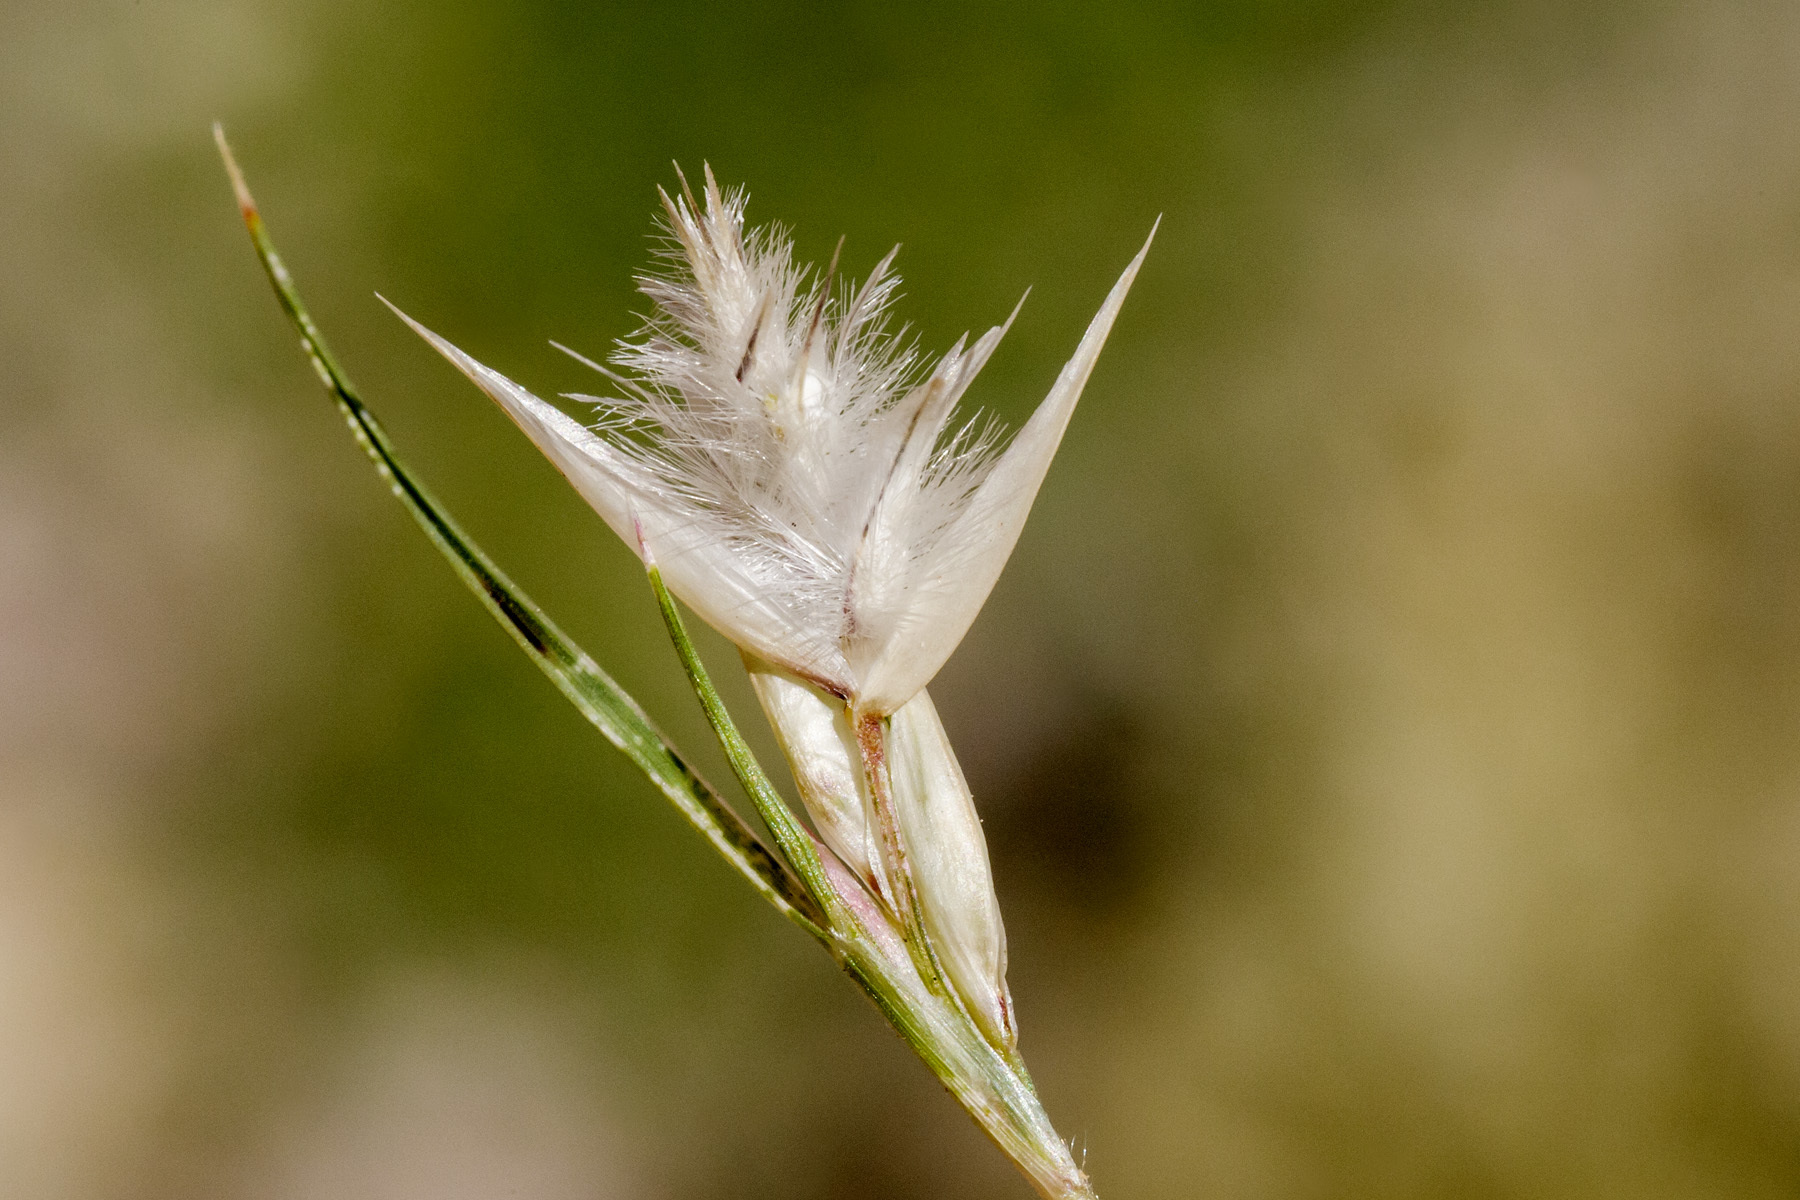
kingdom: Plantae
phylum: Tracheophyta
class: Liliopsida
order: Poales
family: Poaceae
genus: Dasyochloa
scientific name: Dasyochloa pulchella
